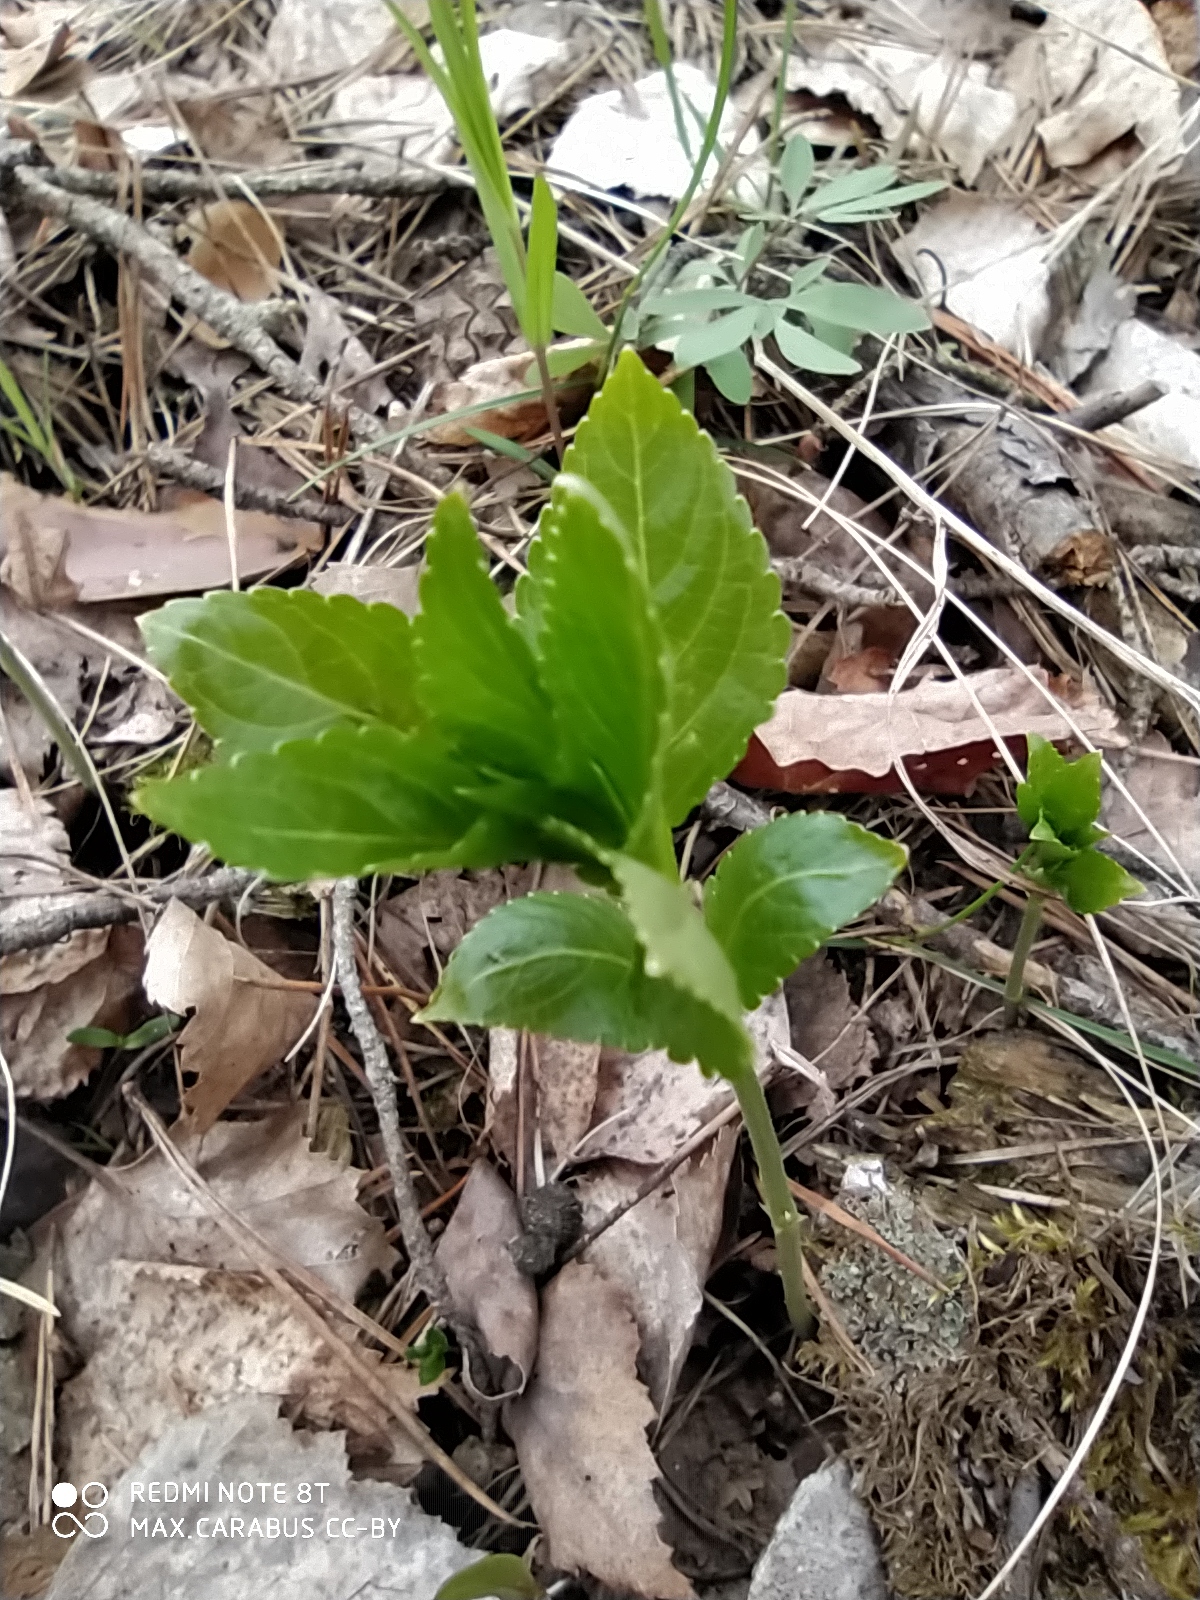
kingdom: Plantae
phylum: Tracheophyta
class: Magnoliopsida
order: Malpighiales
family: Euphorbiaceae
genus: Mercurialis
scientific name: Mercurialis perennis
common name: Dog mercury
